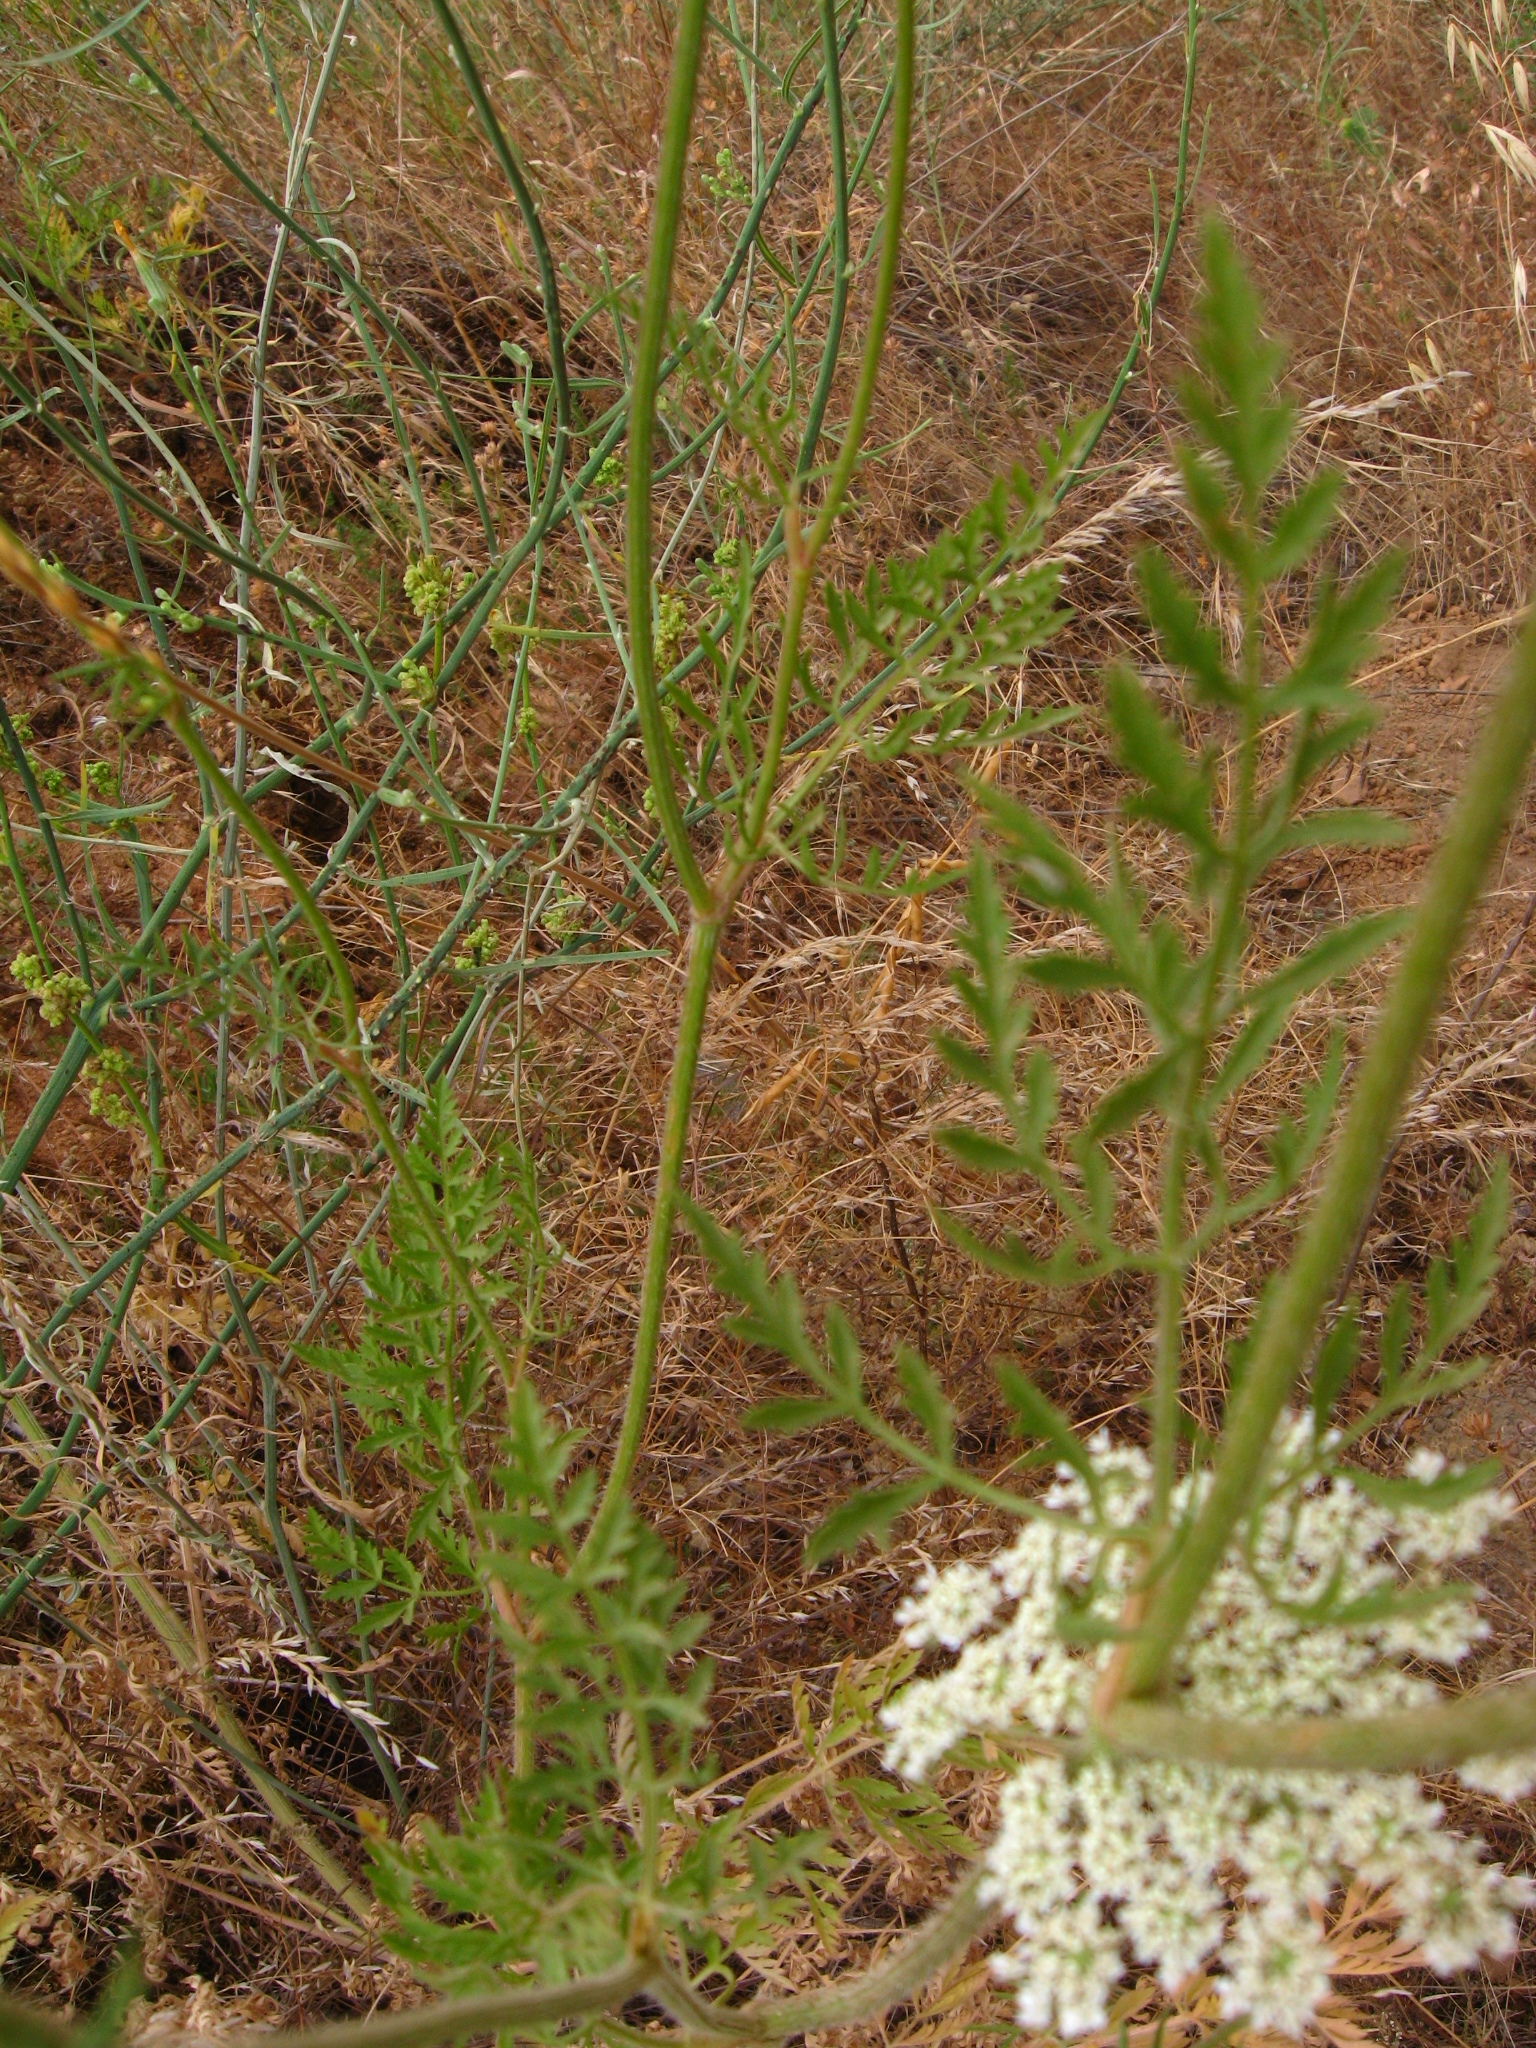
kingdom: Plantae
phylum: Tracheophyta
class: Magnoliopsida
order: Apiales
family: Apiaceae
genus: Daucus
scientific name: Daucus carota
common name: Wild carrot
